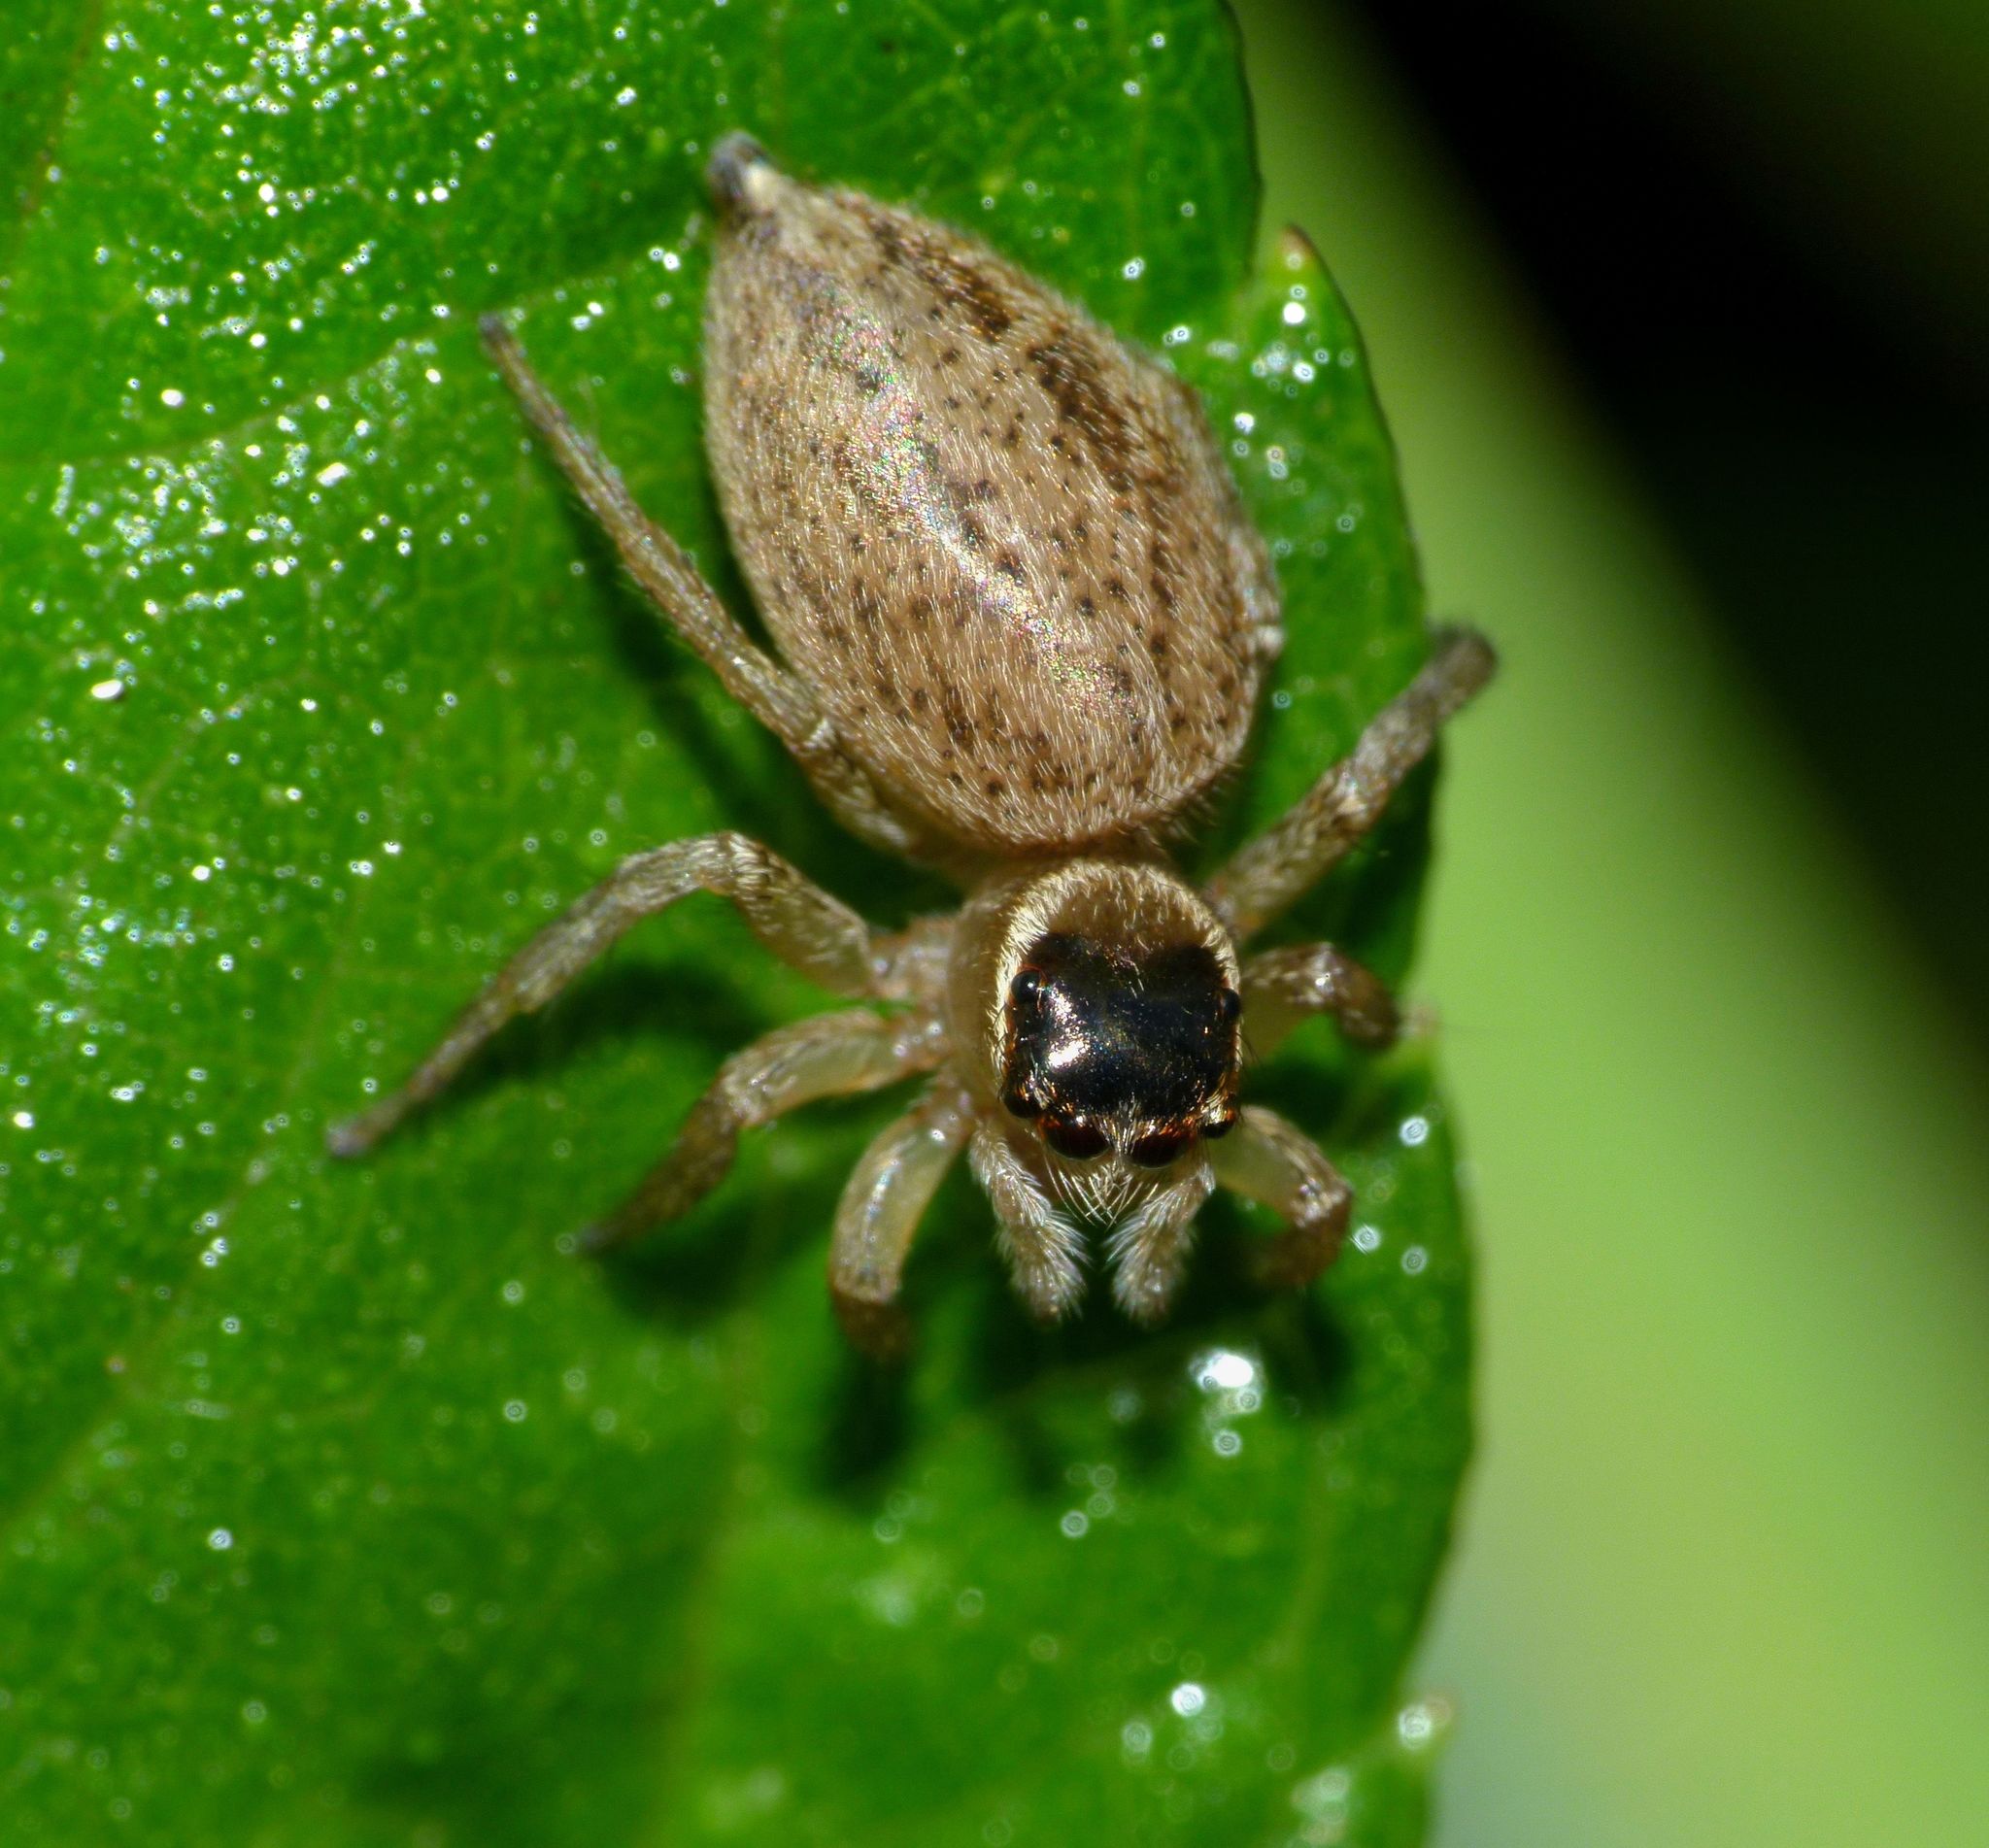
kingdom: Animalia
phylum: Arthropoda
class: Arachnida
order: Araneae
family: Salticidae
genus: Maratus
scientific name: Maratus griseus
